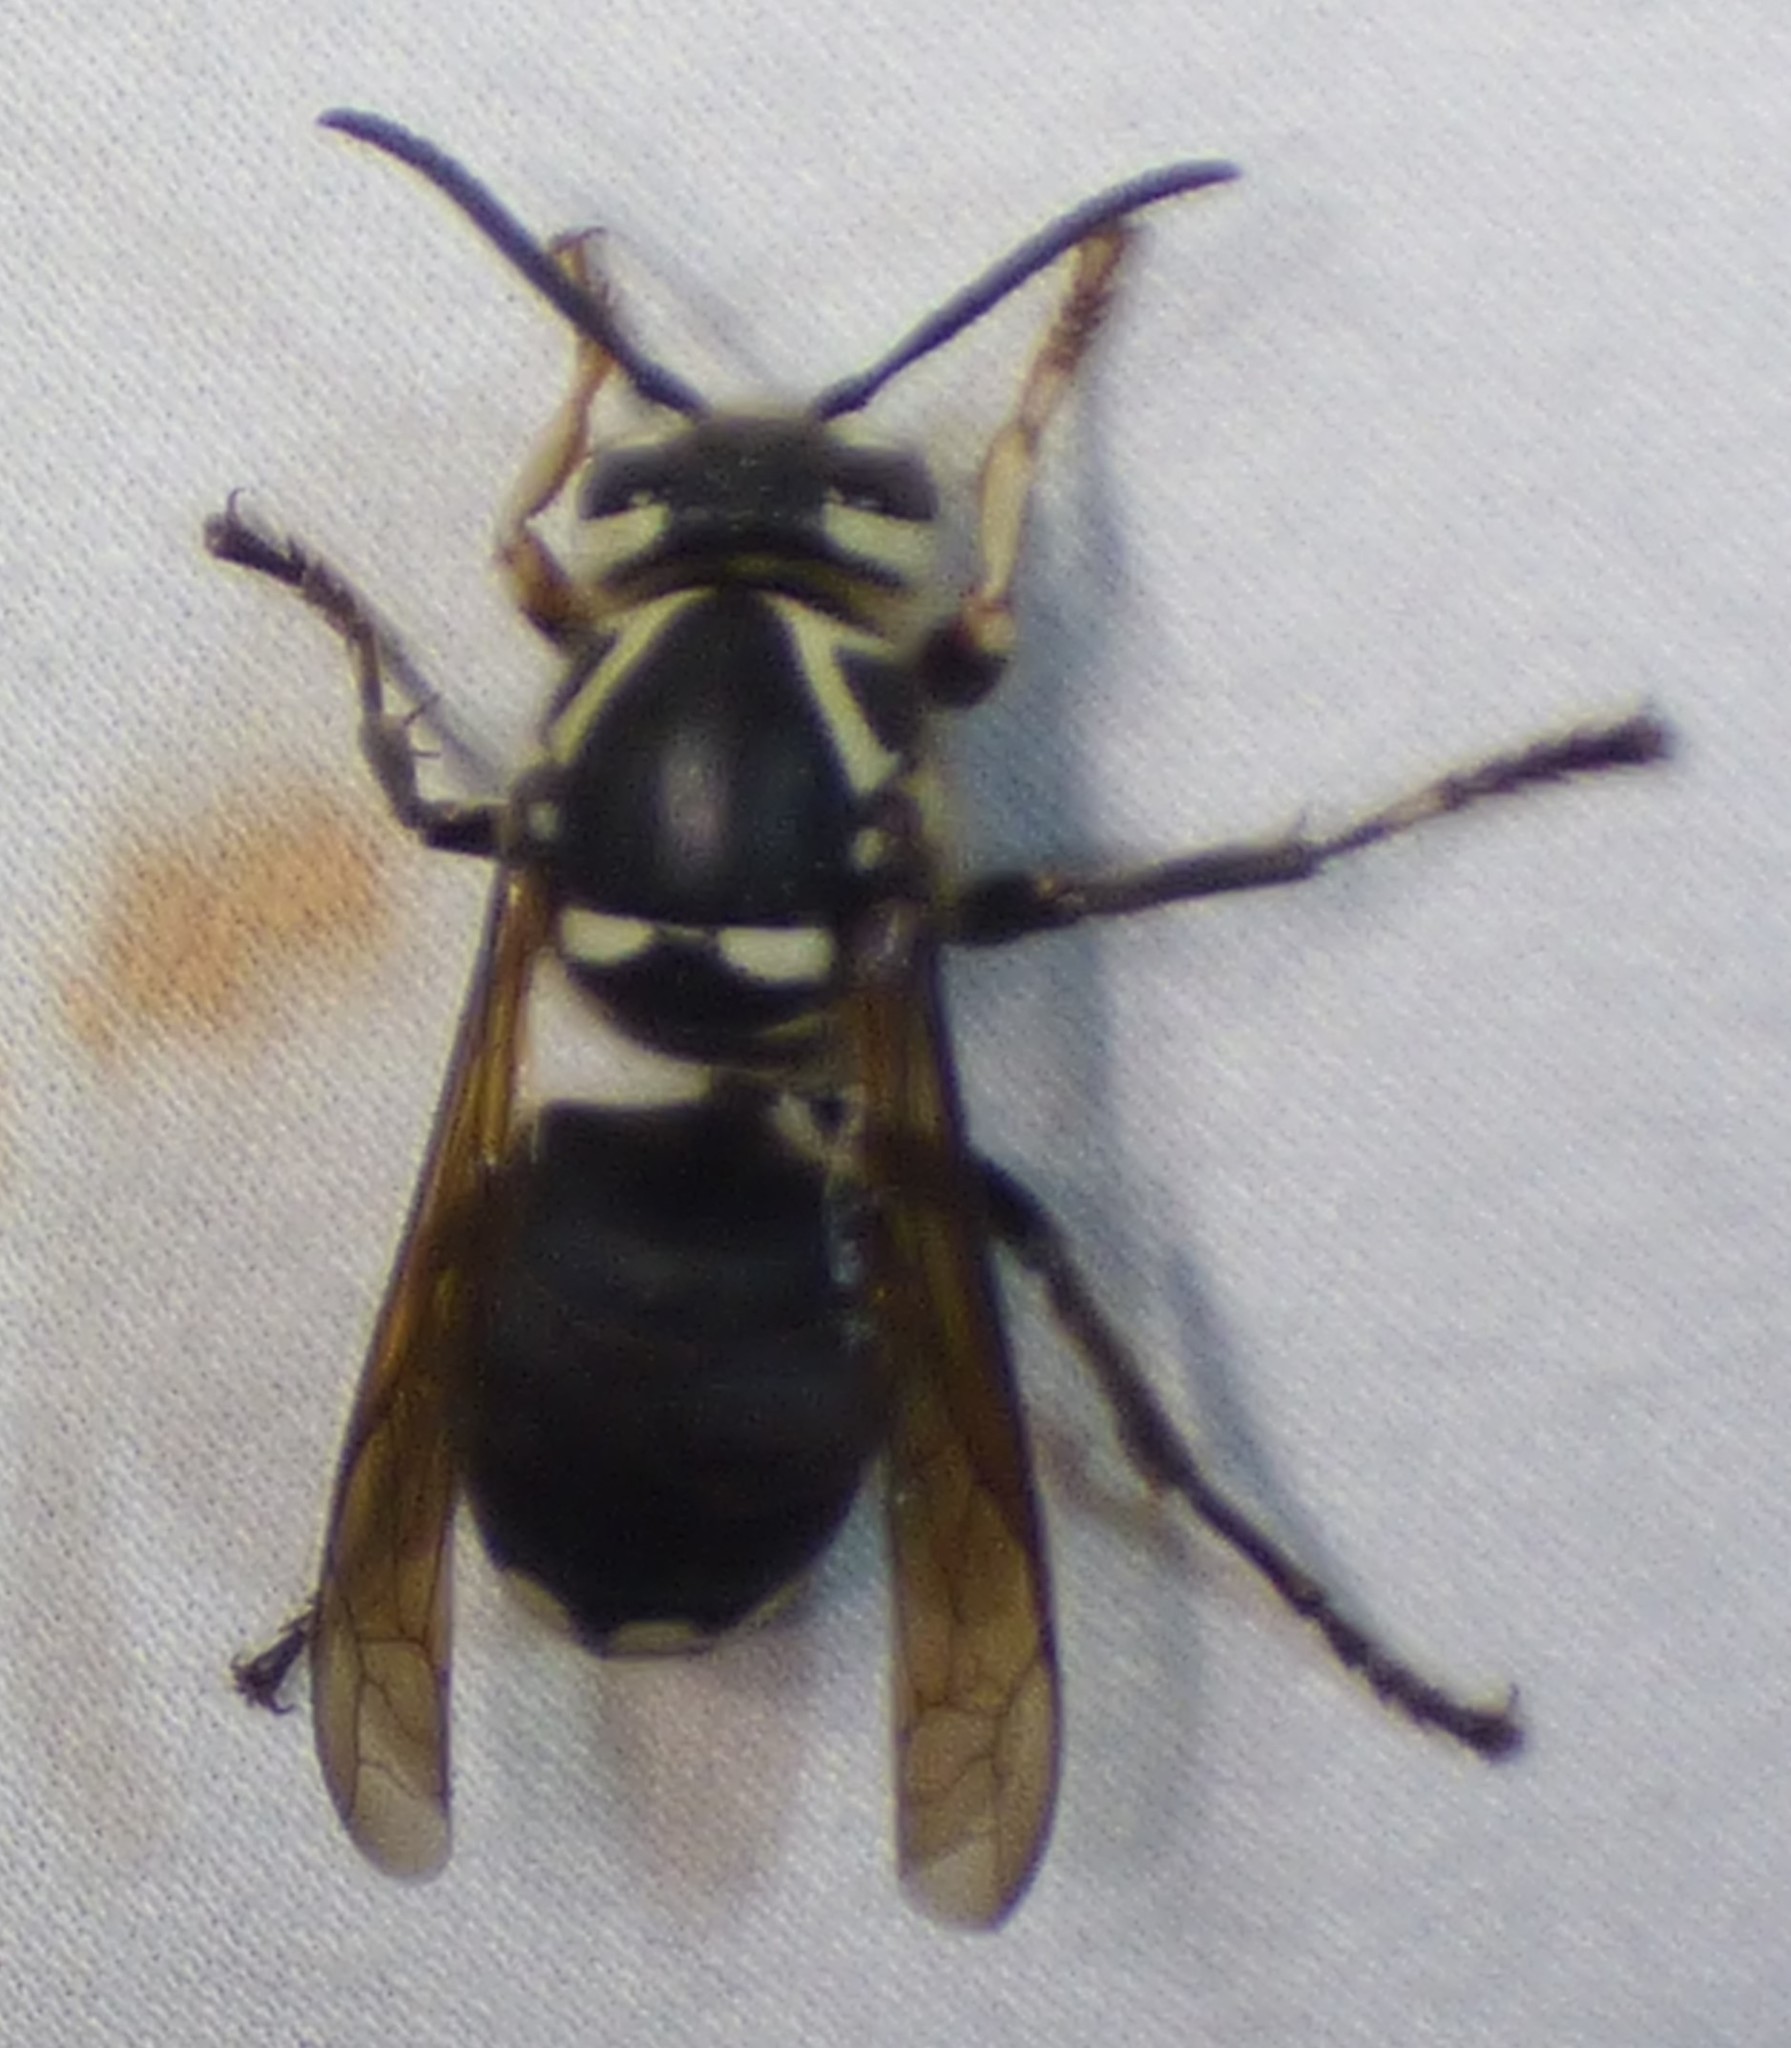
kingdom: Animalia
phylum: Arthropoda
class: Insecta
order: Hymenoptera
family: Vespidae
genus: Dolichovespula
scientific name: Dolichovespula maculata
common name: Bald-faced hornet
